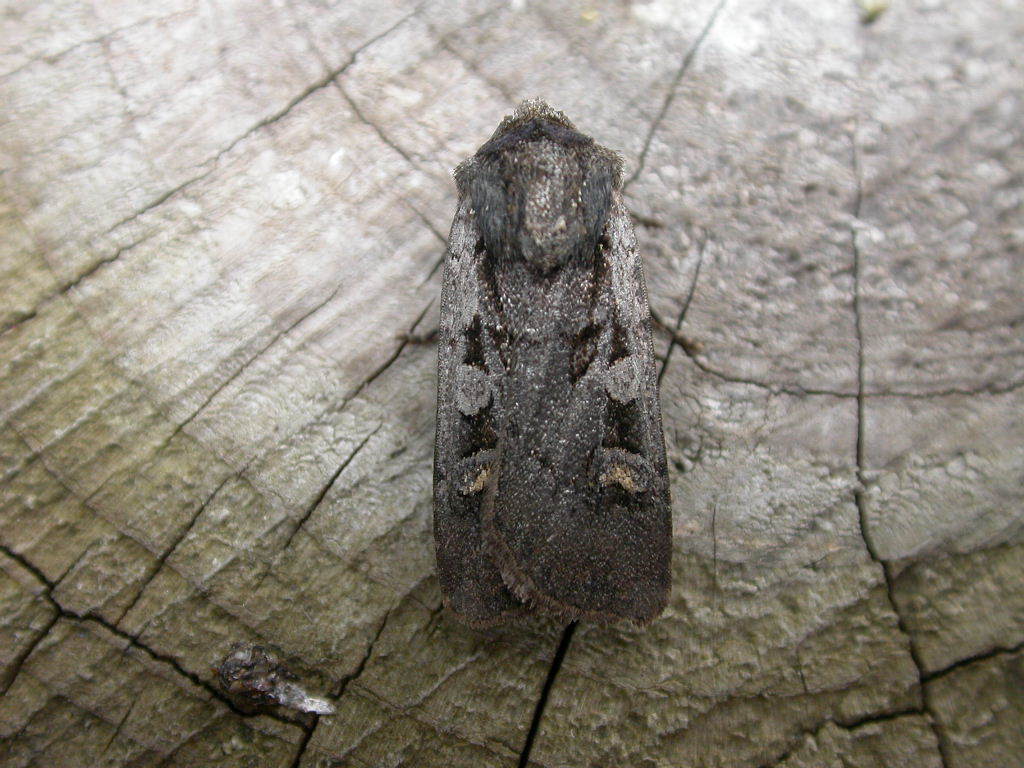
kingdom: Animalia
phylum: Arthropoda
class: Insecta
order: Lepidoptera
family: Noctuidae
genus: Euxoa
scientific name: Euxoa obelisca
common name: Square-spot dart
